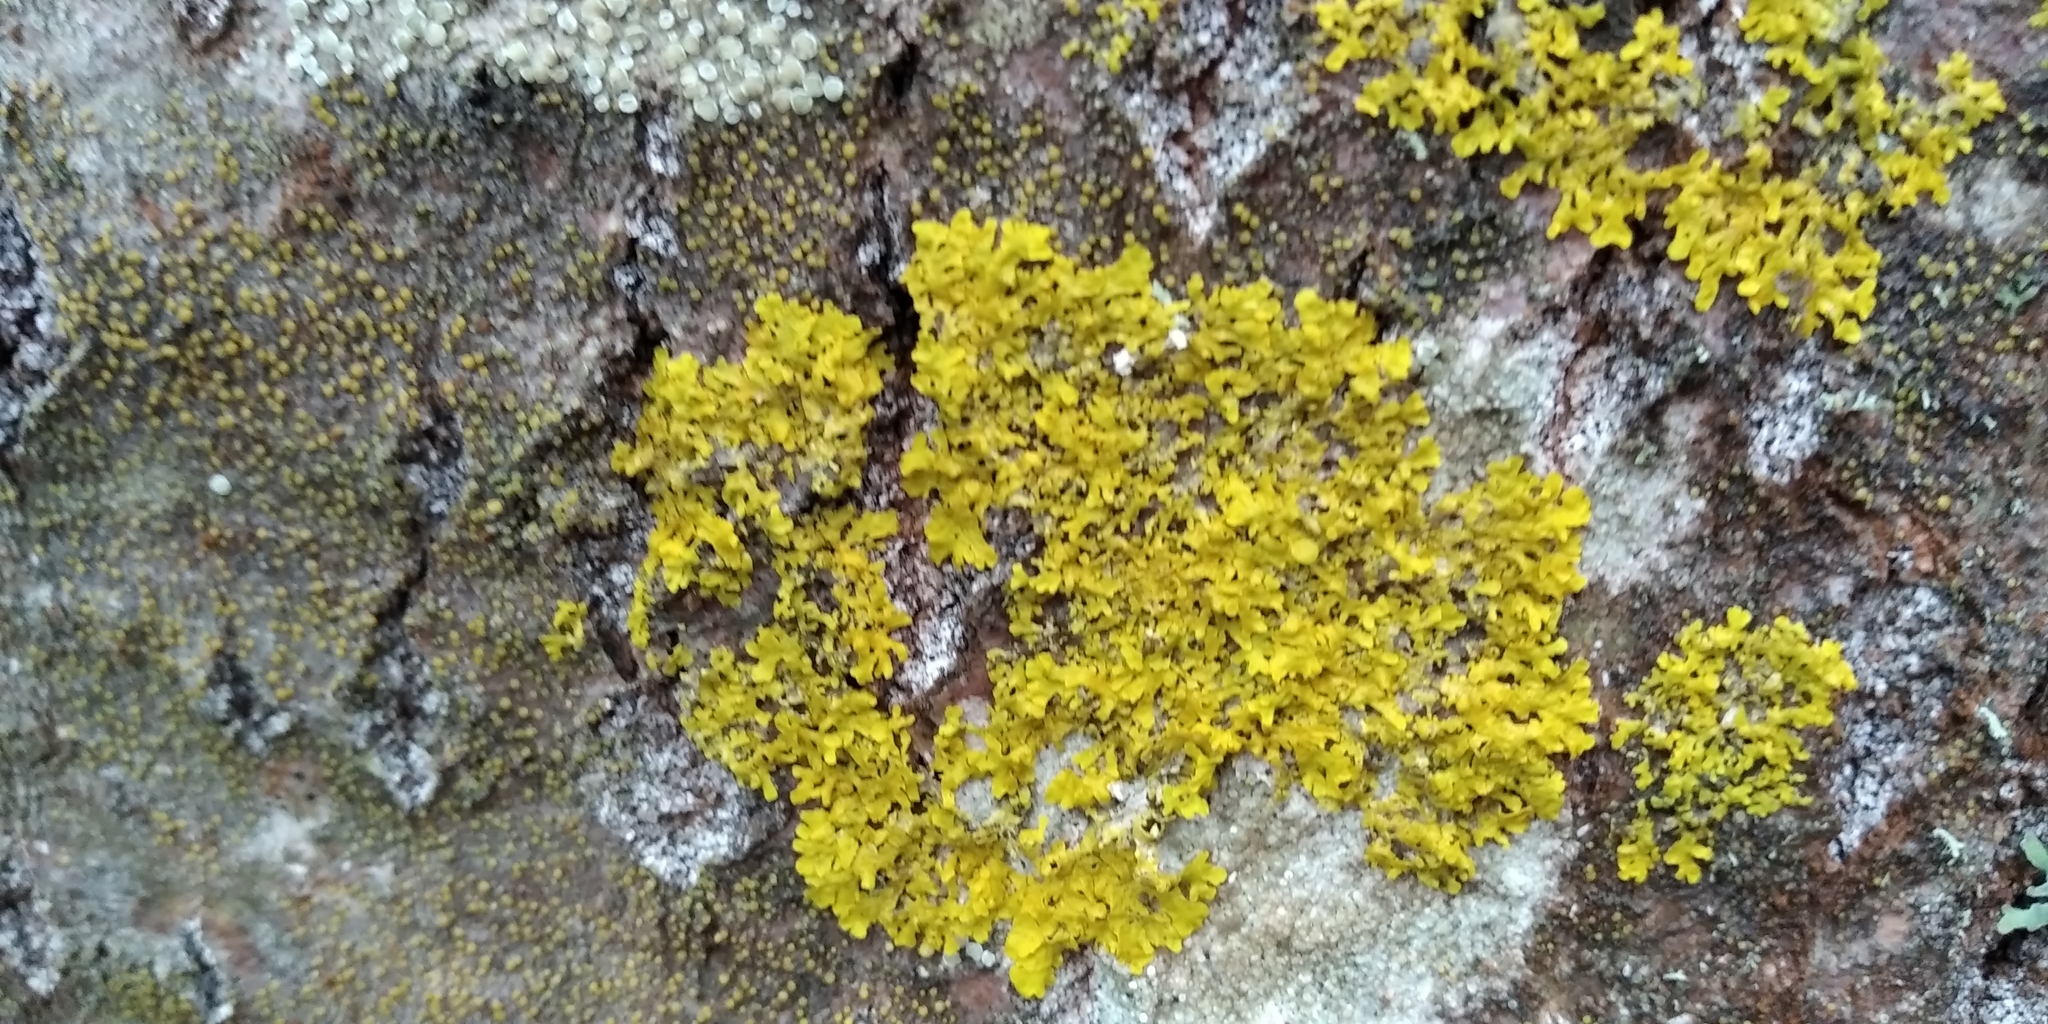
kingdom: Fungi
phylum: Ascomycota
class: Lecanoromycetes
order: Teloschistales
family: Teloschistaceae
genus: Xanthoria
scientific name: Xanthoria parietina
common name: Common orange lichen
